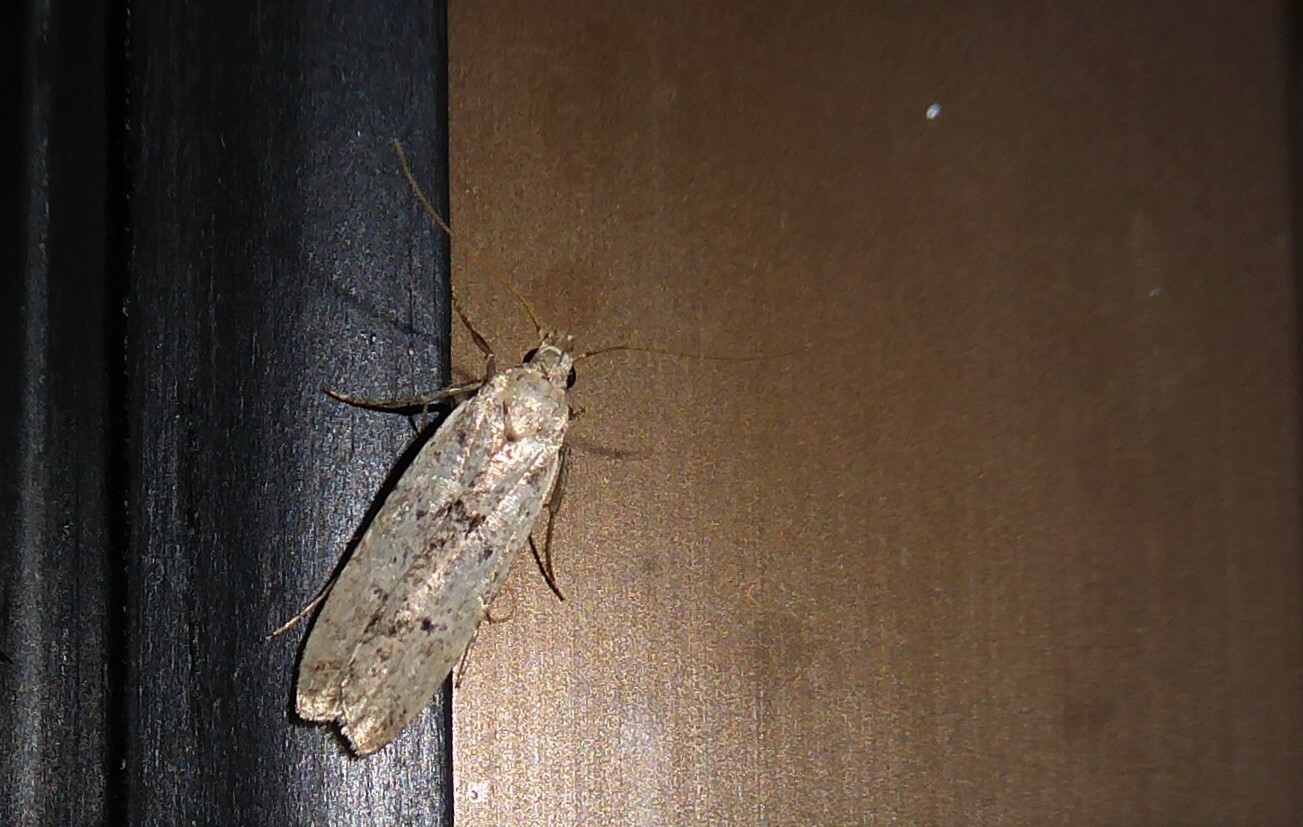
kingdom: Animalia
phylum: Arthropoda
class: Insecta
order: Lepidoptera
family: Gelechiidae
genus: Anisoplaca
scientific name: Anisoplaca achyrota
